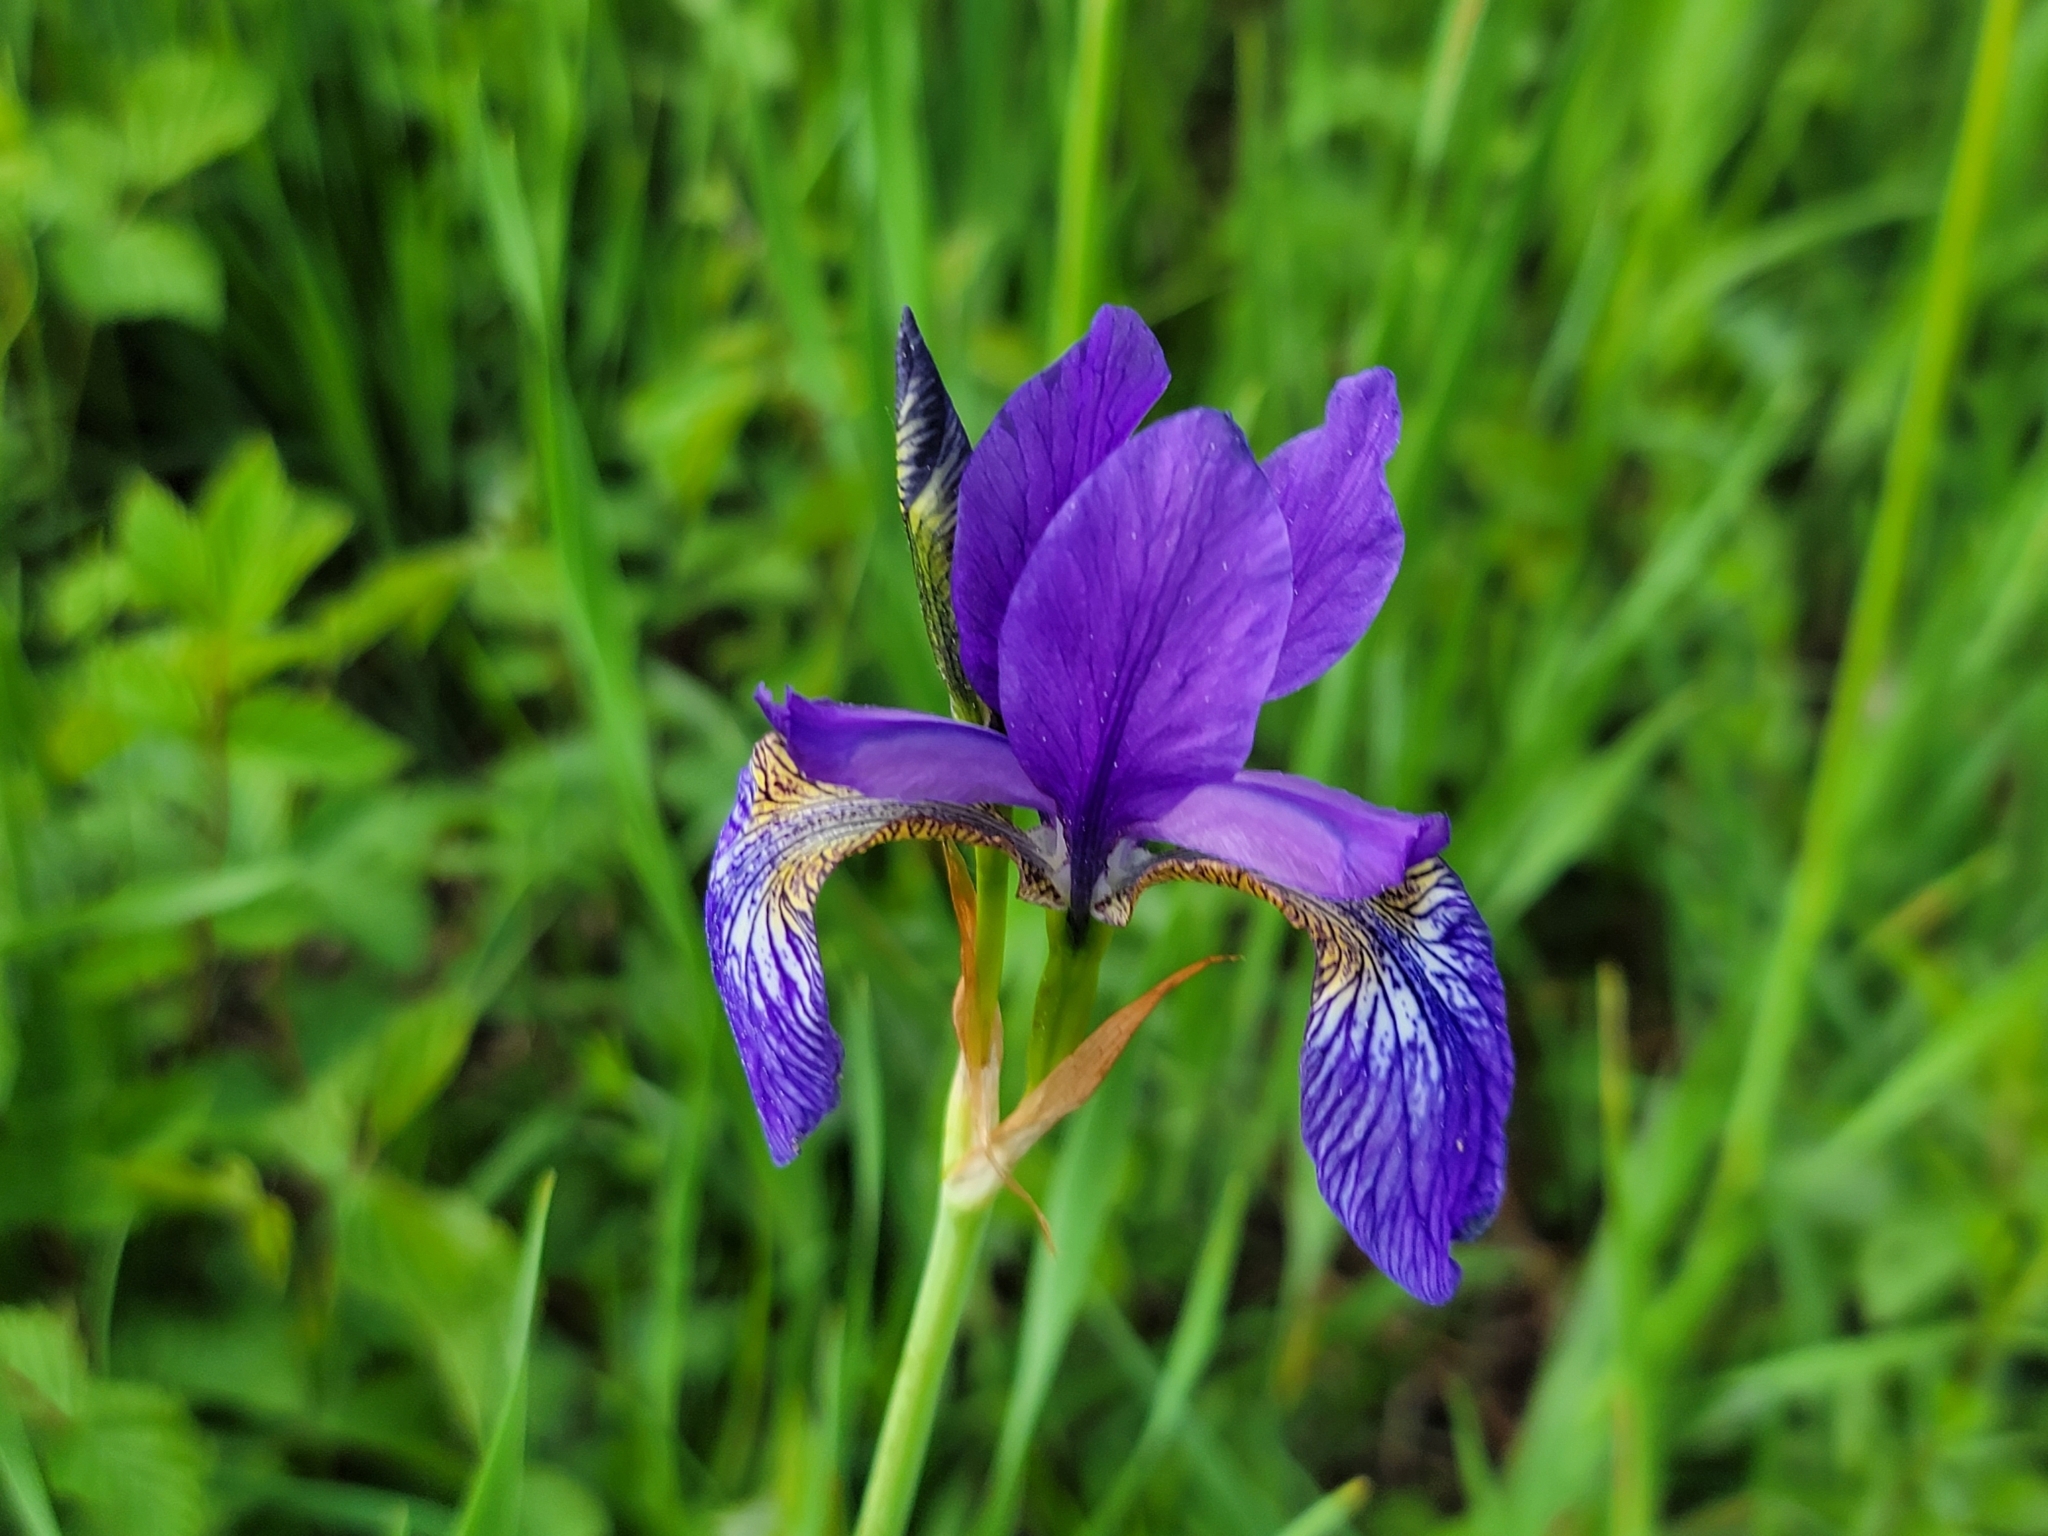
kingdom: Plantae
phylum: Tracheophyta
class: Liliopsida
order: Asparagales
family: Iridaceae
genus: Iris
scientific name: Iris sibirica
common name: Siberian iris
